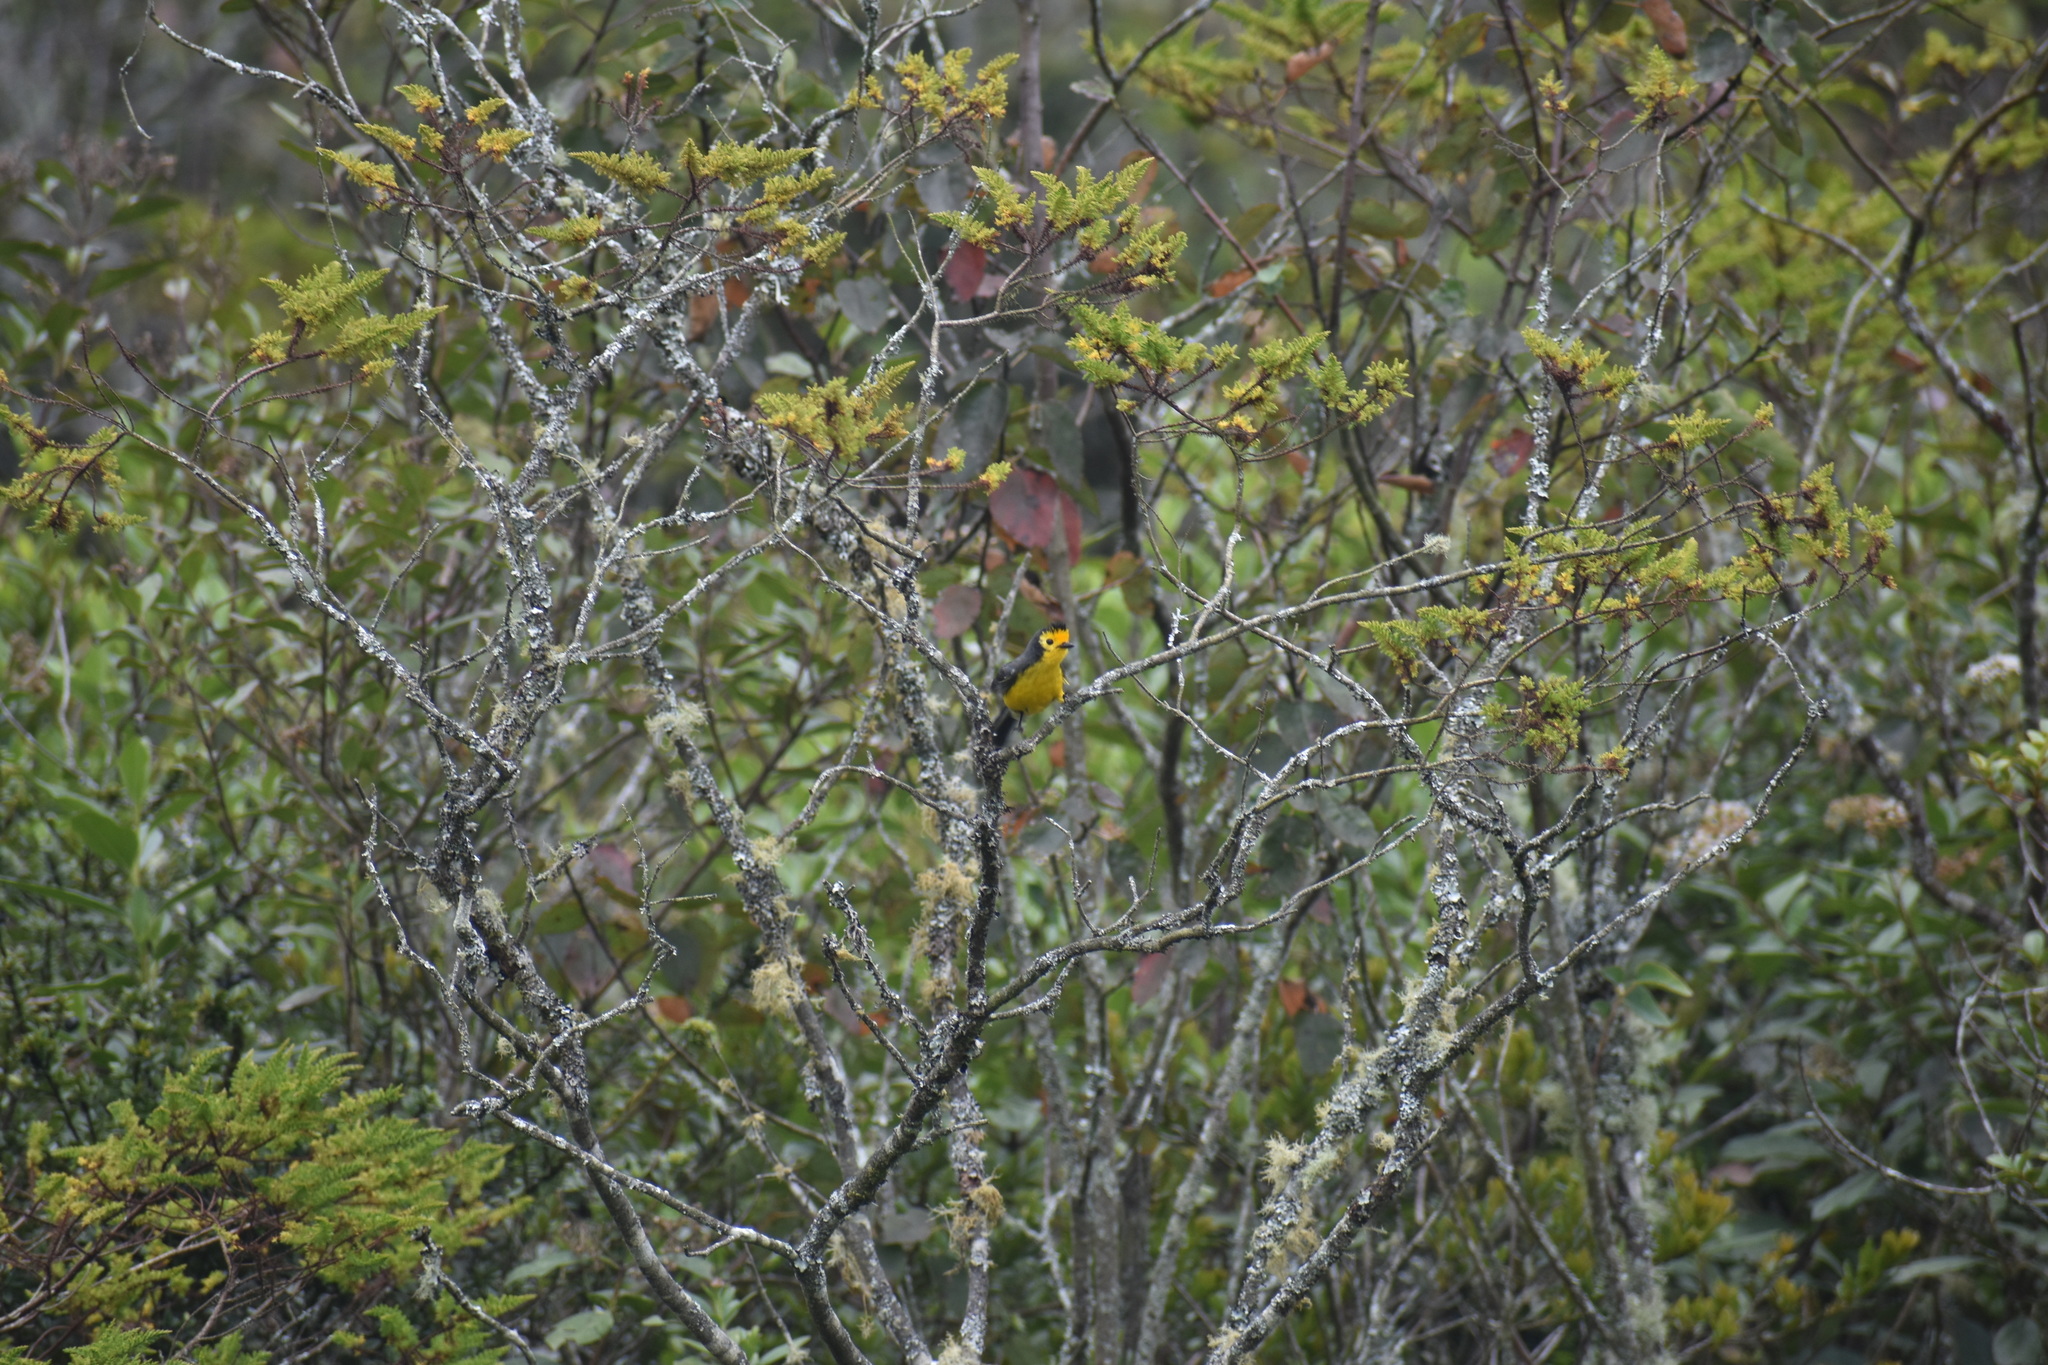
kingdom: Animalia
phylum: Chordata
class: Aves
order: Passeriformes
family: Parulidae
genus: Myioborus
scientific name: Myioborus ornatus
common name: Golden-fronted whitestart
